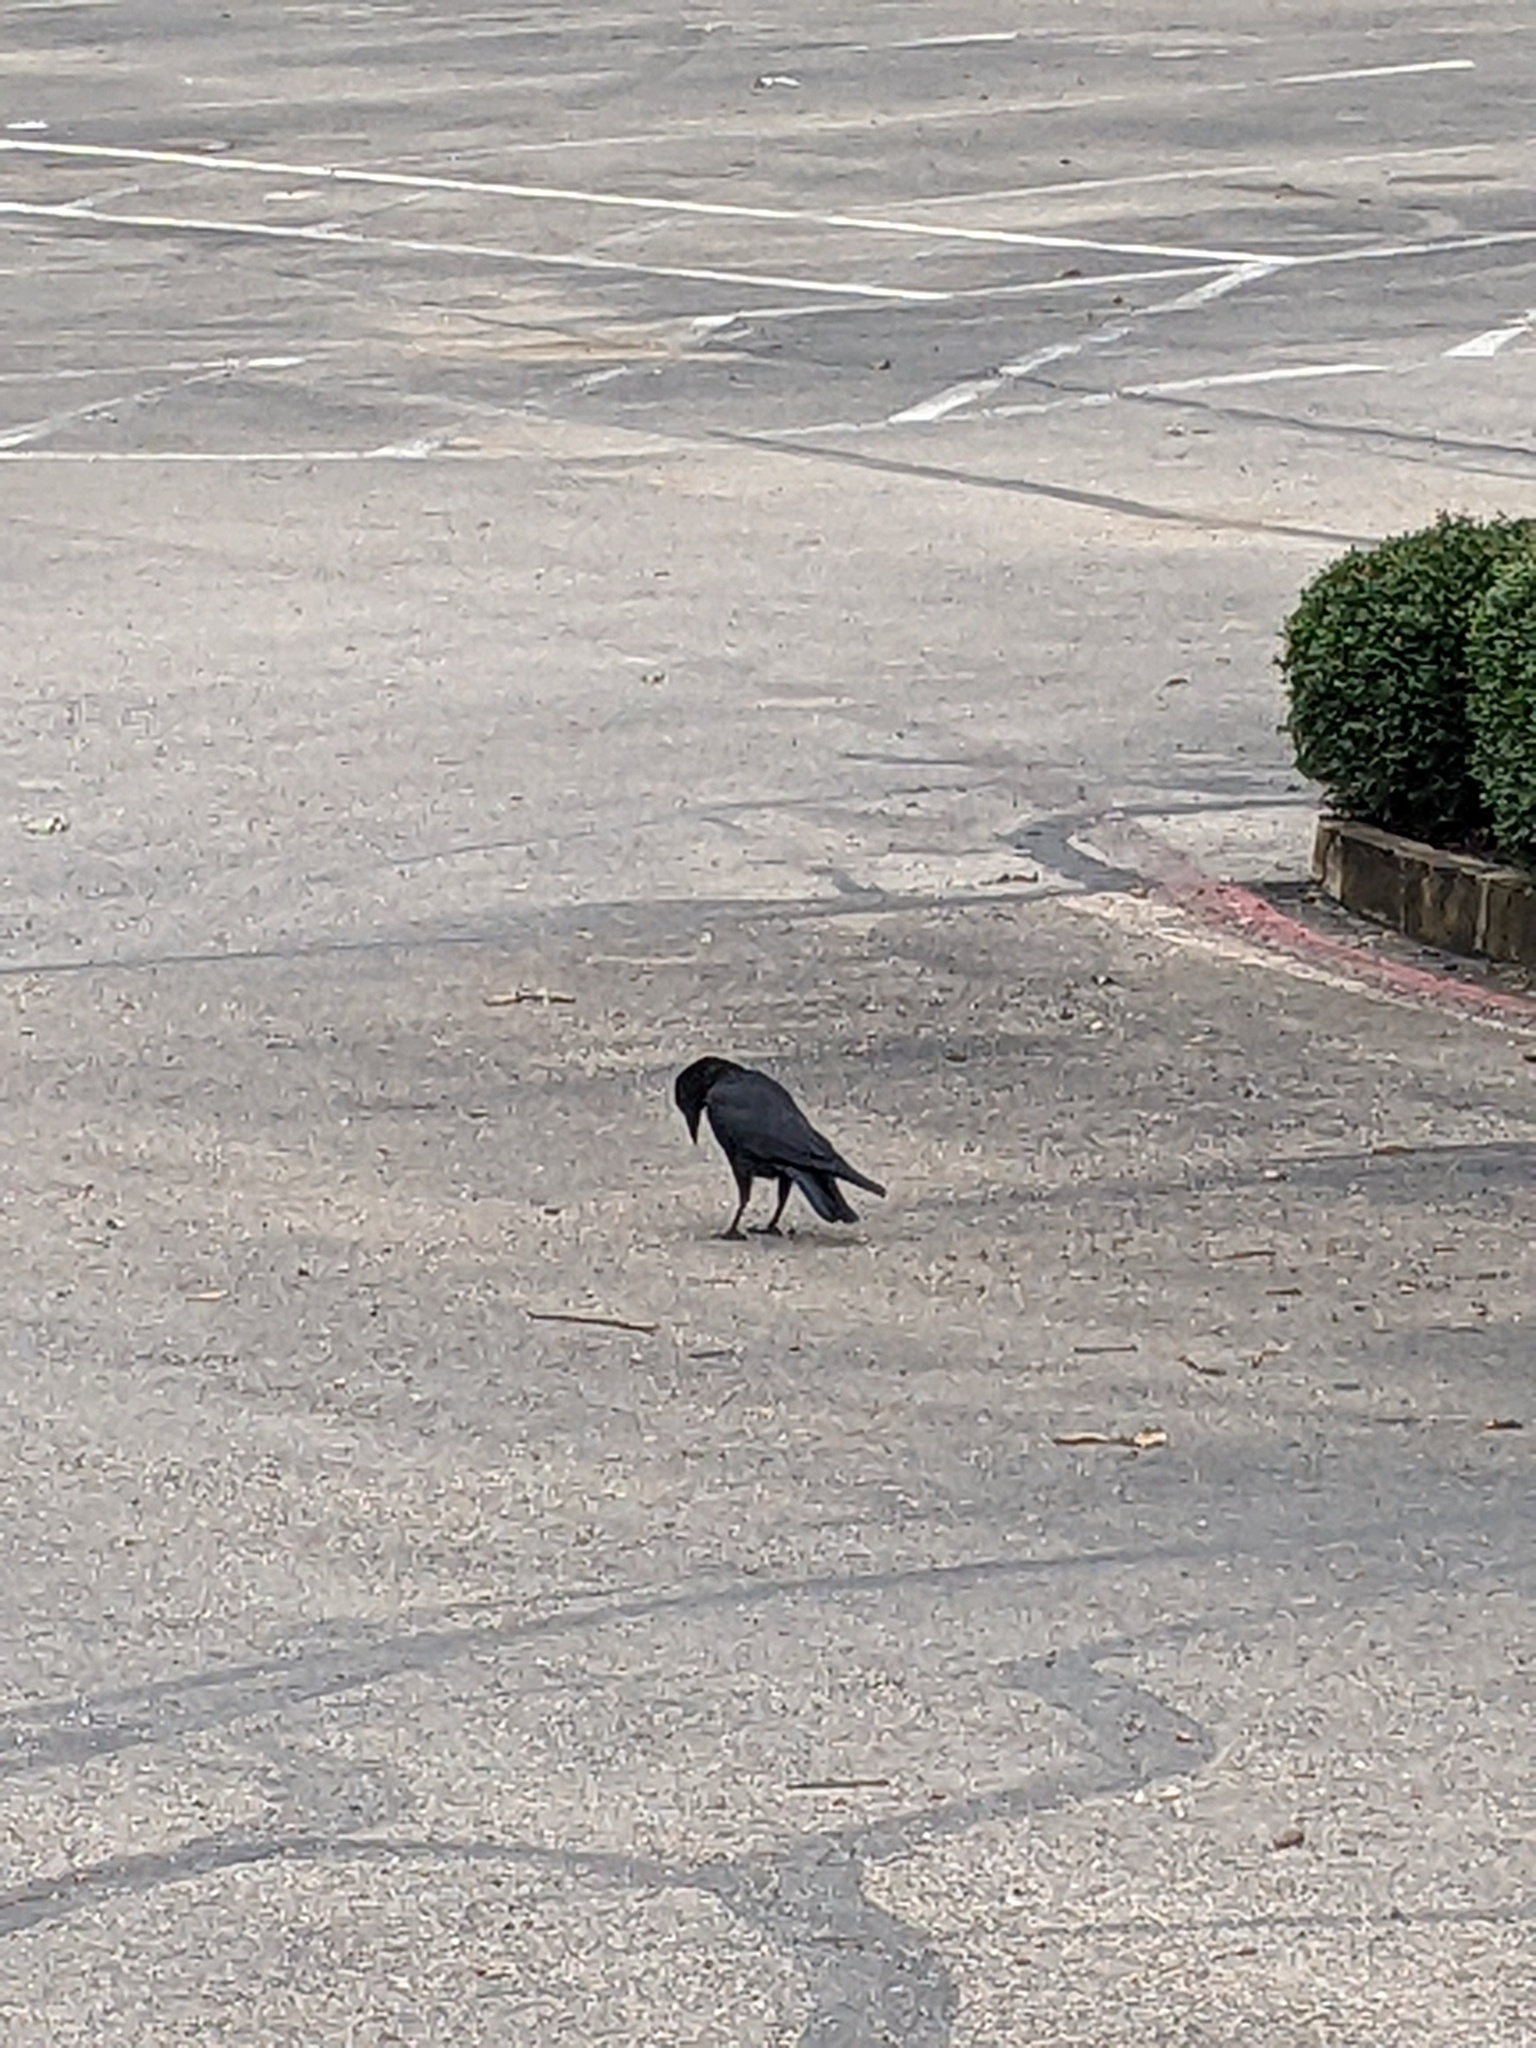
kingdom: Animalia
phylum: Chordata
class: Aves
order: Passeriformes
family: Corvidae
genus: Corvus
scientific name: Corvus brachyrhynchos
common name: American crow
